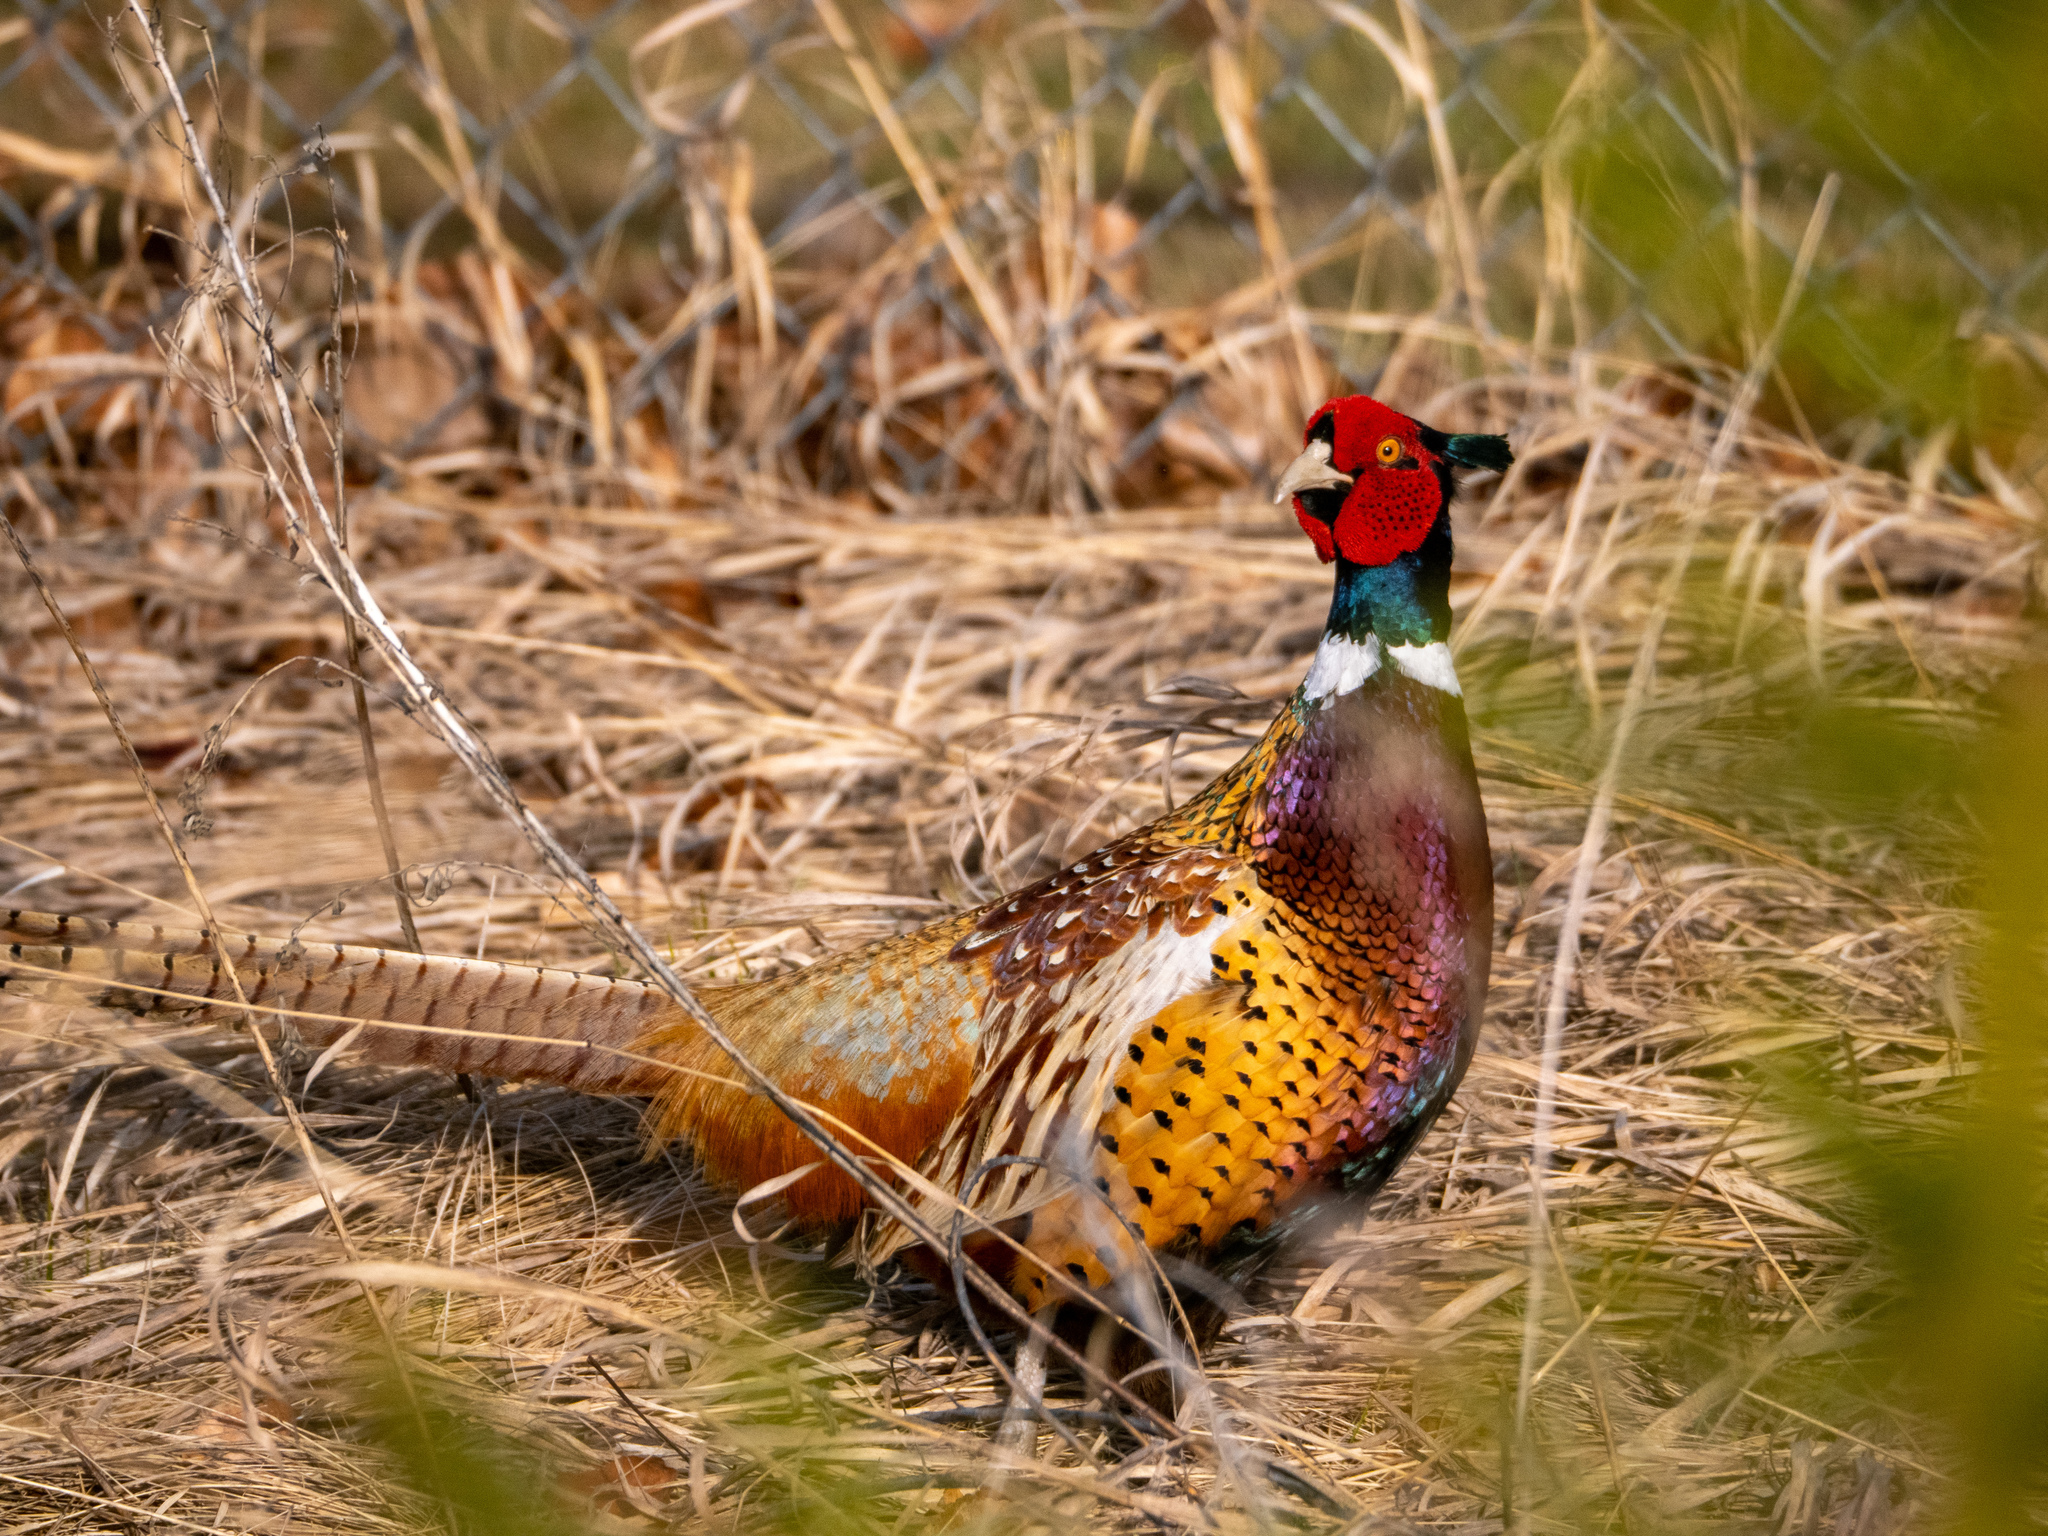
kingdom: Animalia
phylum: Chordata
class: Aves
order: Galliformes
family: Phasianidae
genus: Phasianus
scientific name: Phasianus colchicus
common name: Common pheasant
